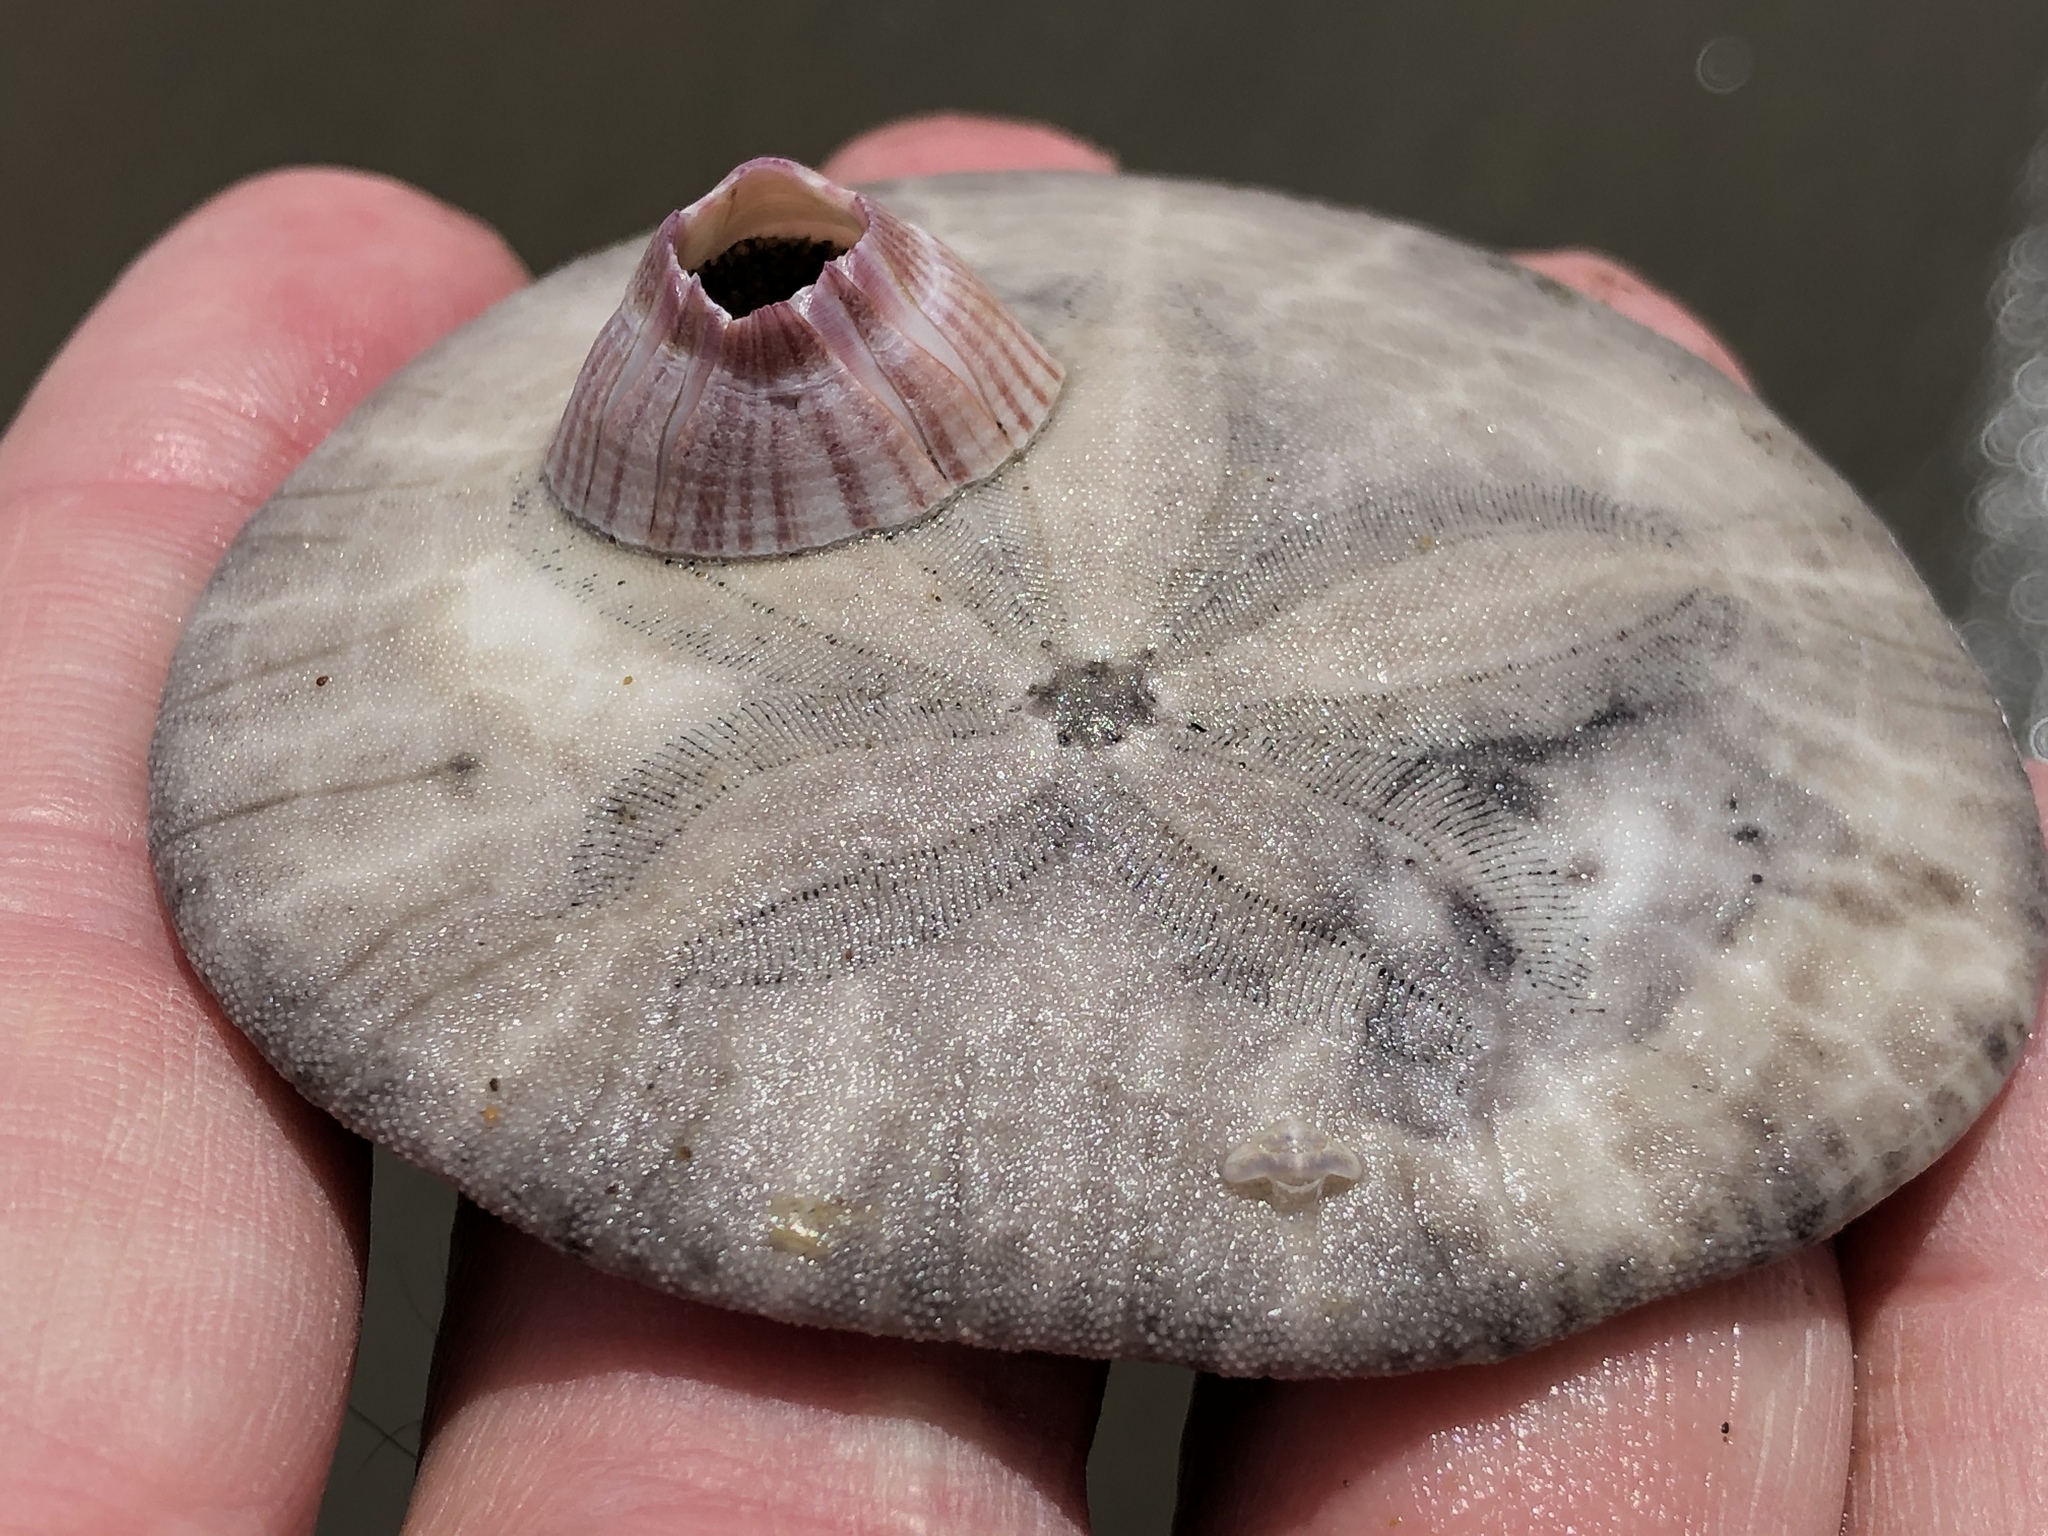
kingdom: Animalia
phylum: Arthropoda
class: Maxillopoda
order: Sessilia
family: Balanidae
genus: Paraconcavus
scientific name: Paraconcavus pacificus
